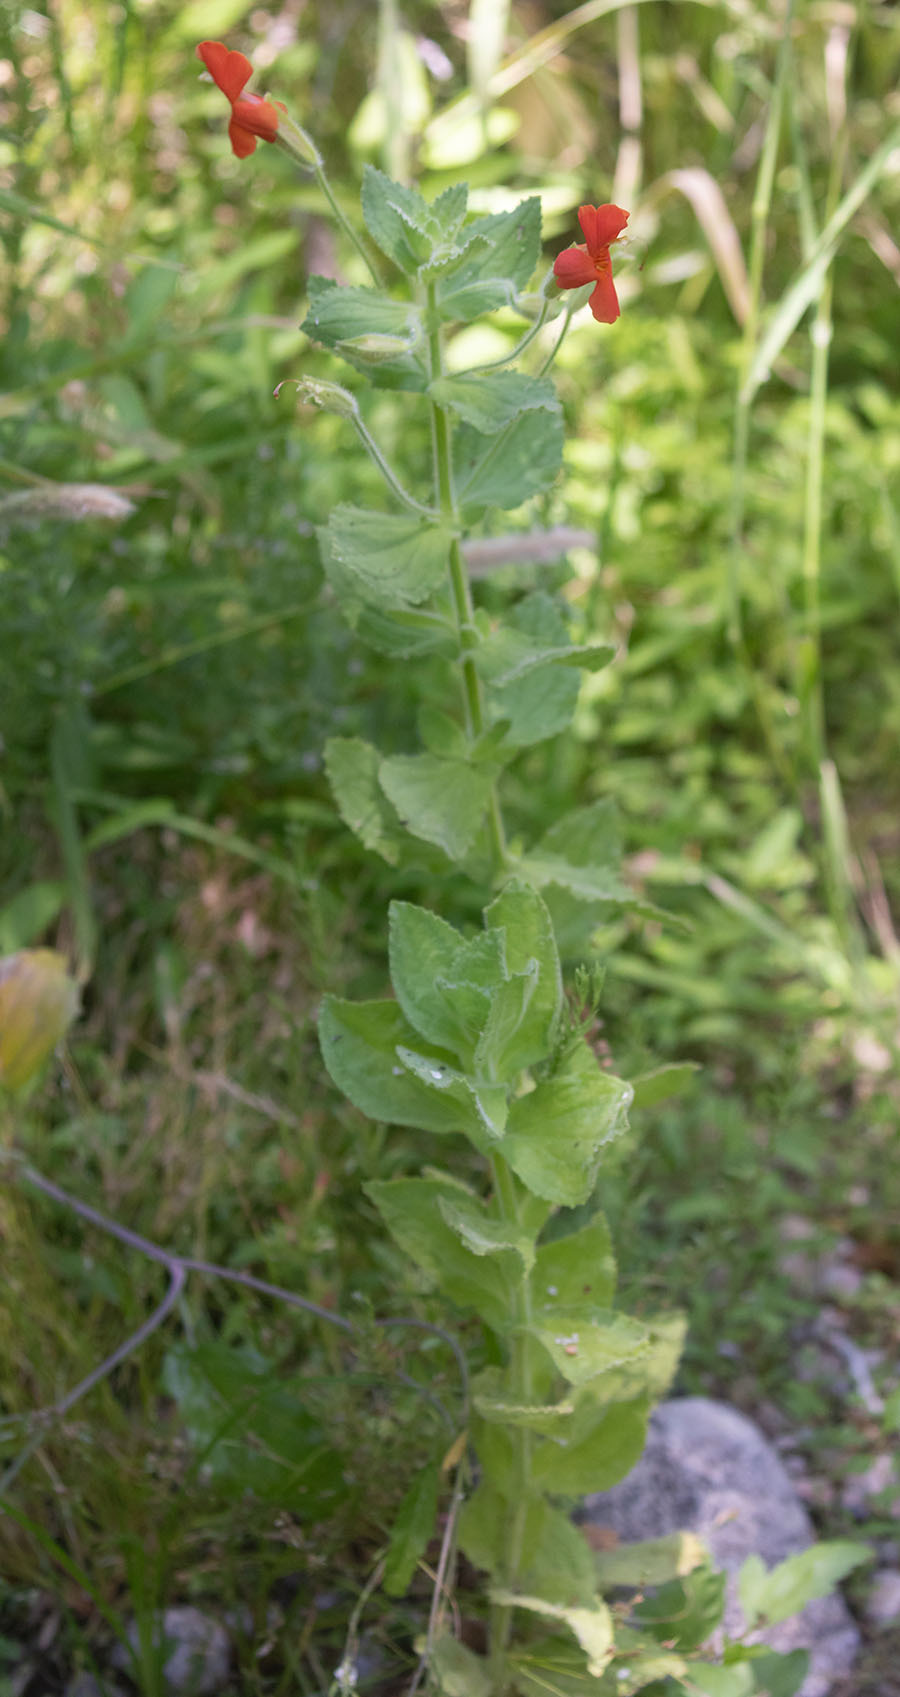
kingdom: Plantae
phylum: Tracheophyta
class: Magnoliopsida
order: Lamiales
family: Phrymaceae
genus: Erythranthe
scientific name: Erythranthe cardinalis
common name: Scarlet monkey-flower
